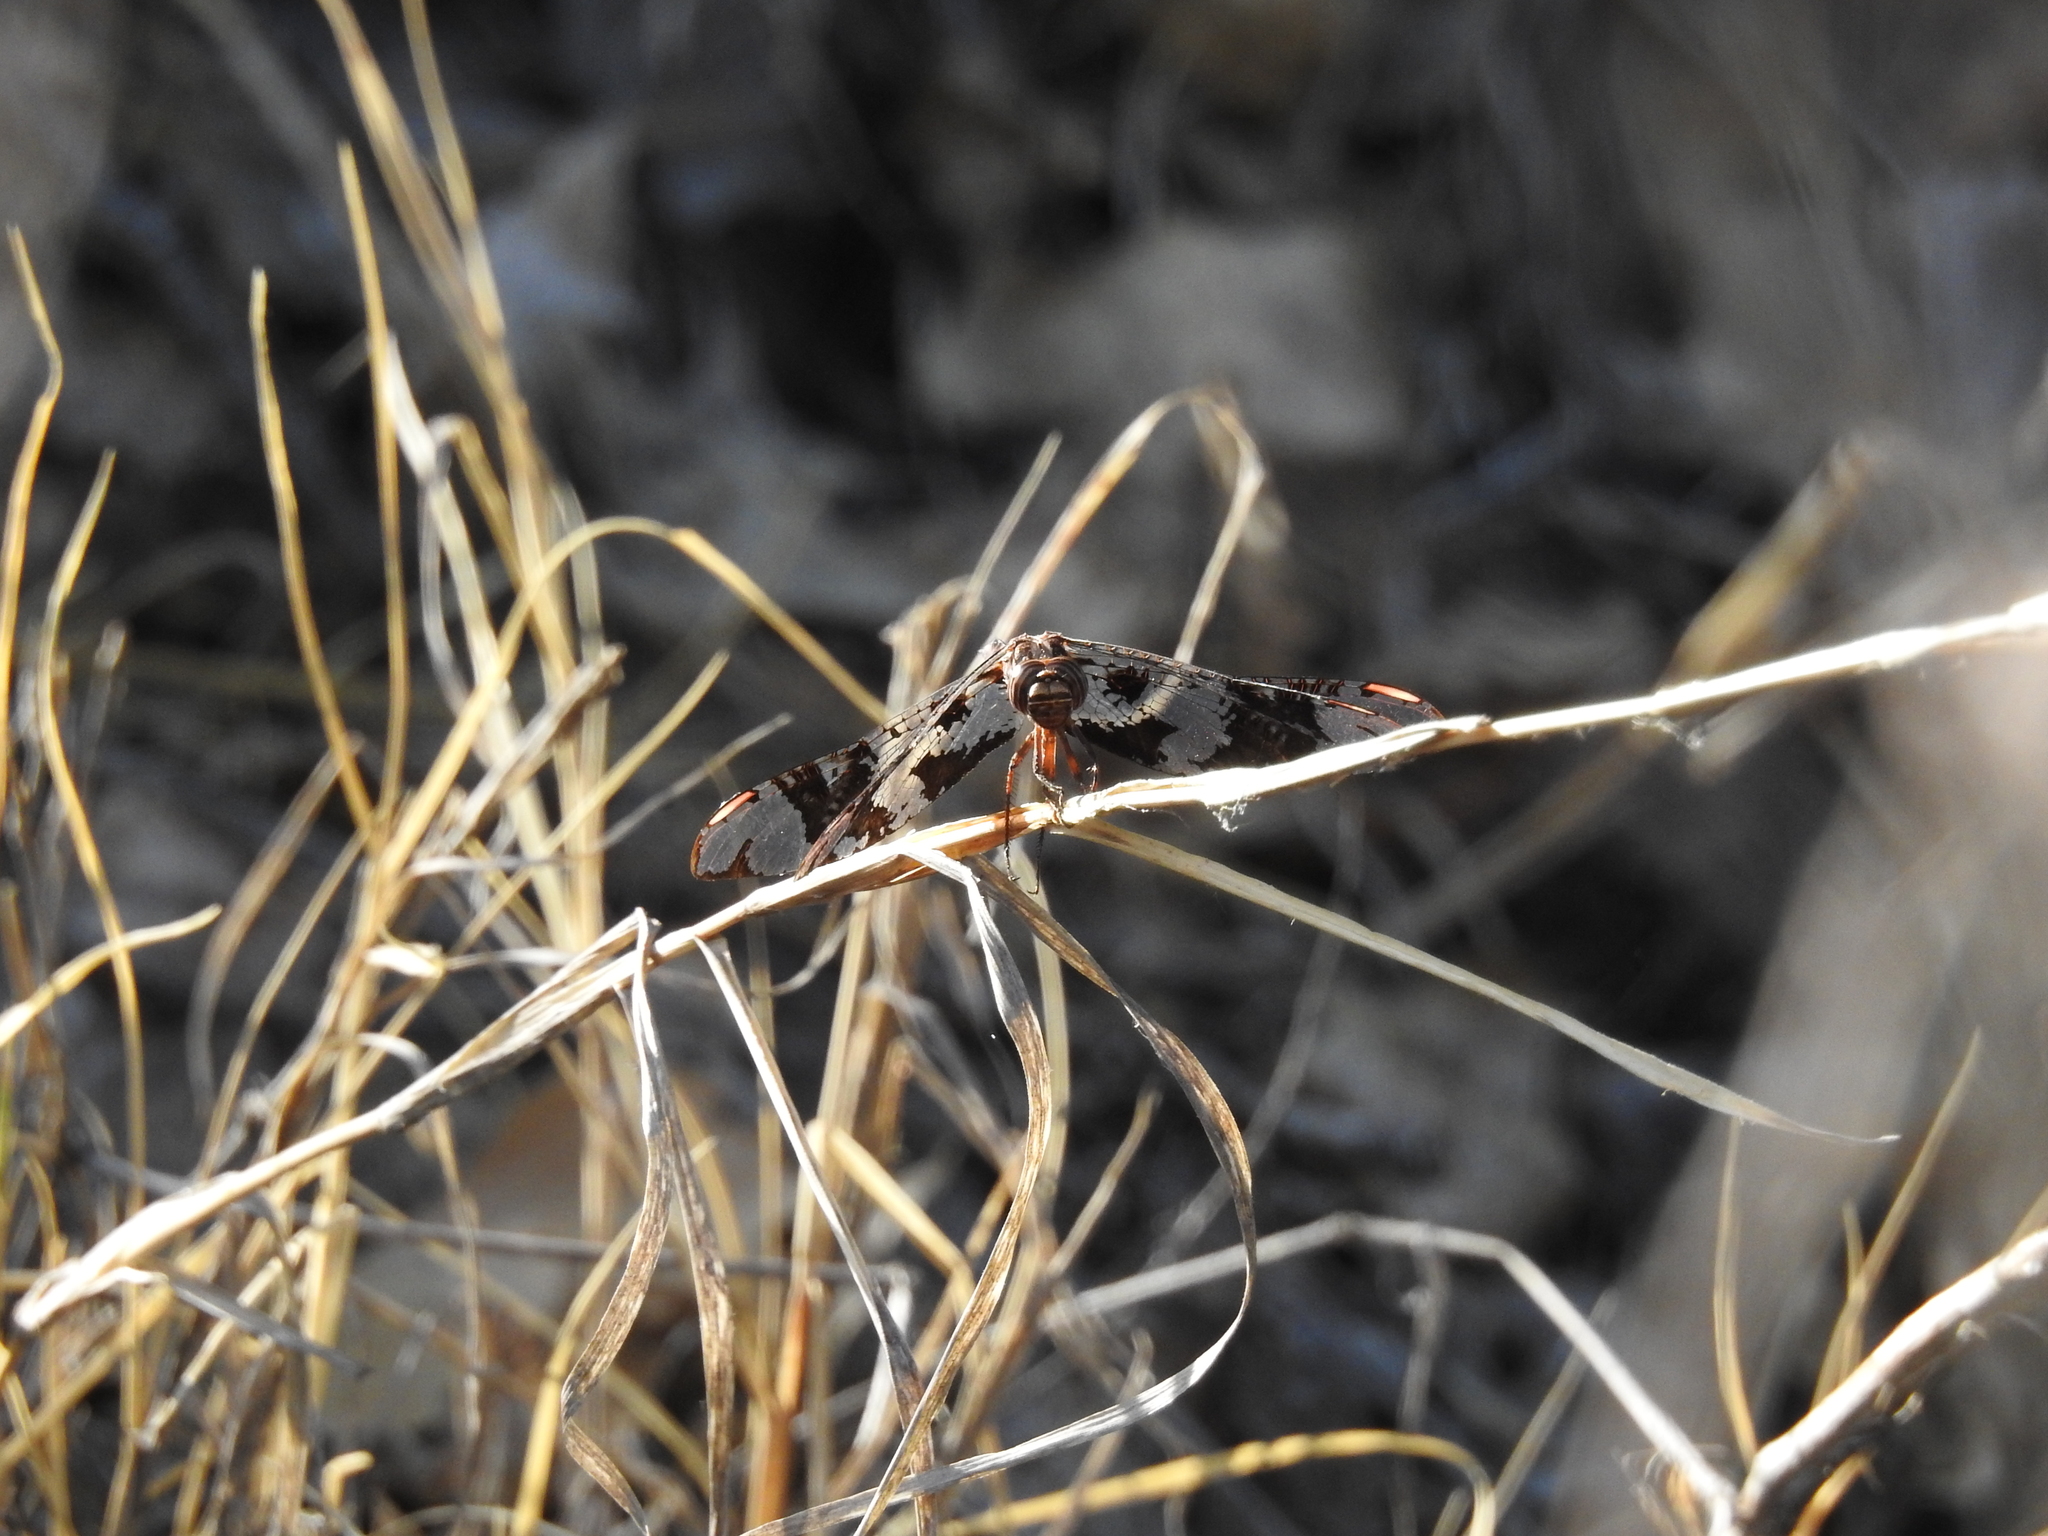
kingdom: Animalia
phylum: Arthropoda
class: Insecta
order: Odonata
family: Libellulidae
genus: Pseudoleon
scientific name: Pseudoleon superbus
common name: Filigree skimmer
